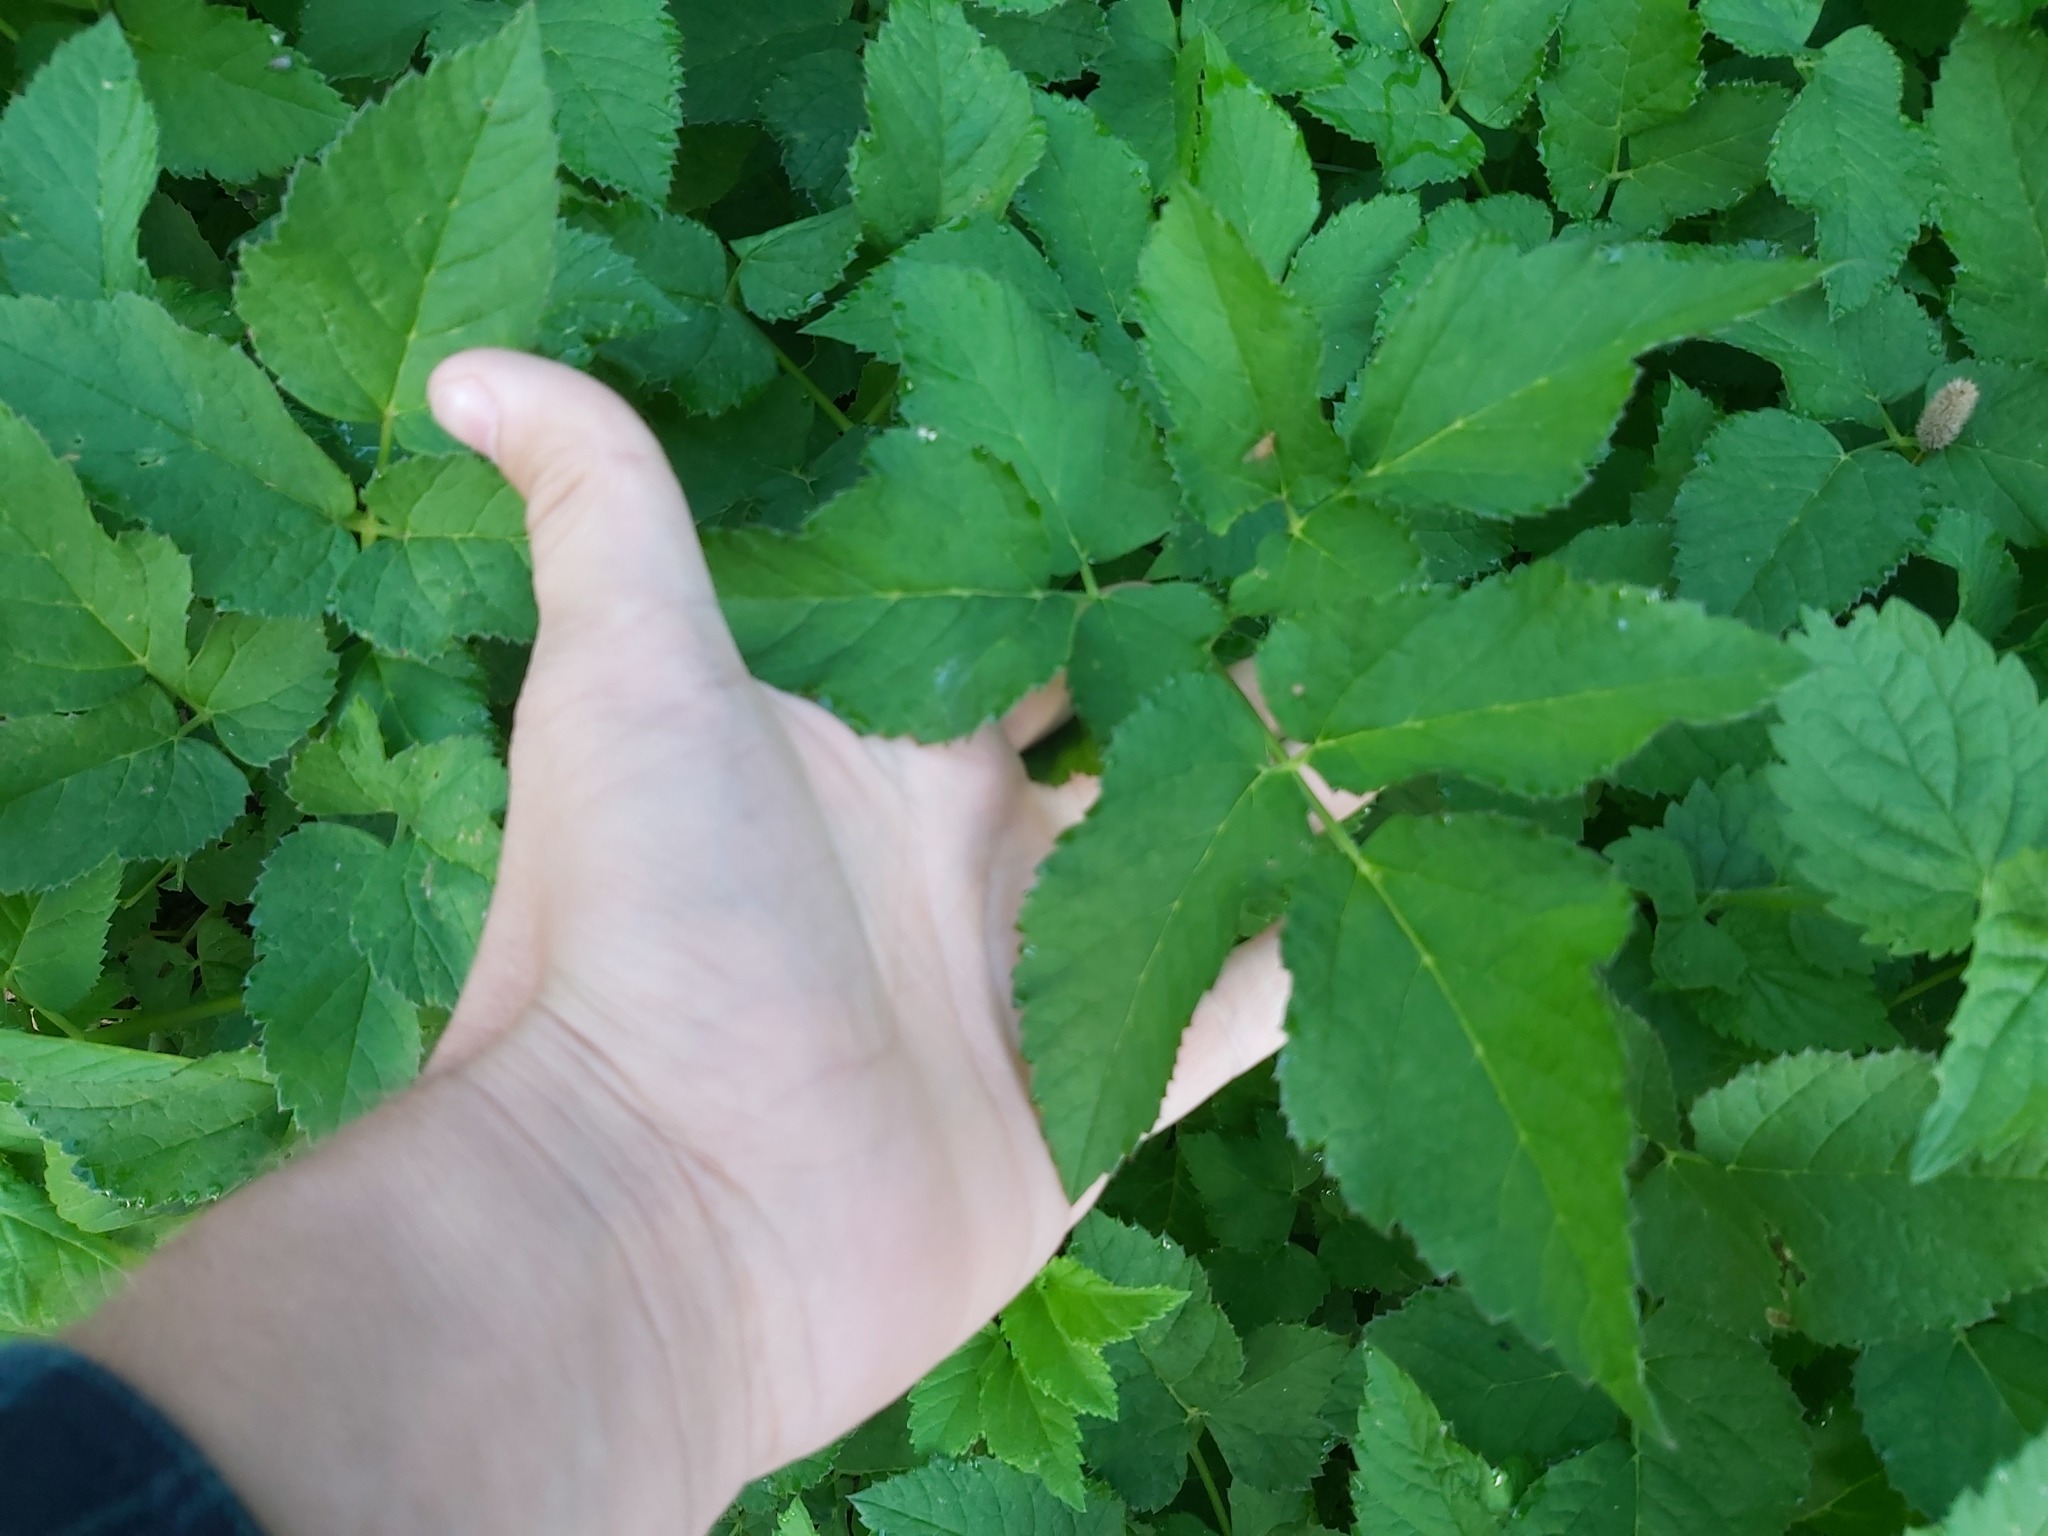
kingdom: Plantae
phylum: Tracheophyta
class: Magnoliopsida
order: Apiales
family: Apiaceae
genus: Aegopodium
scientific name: Aegopodium podagraria
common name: Ground-elder
